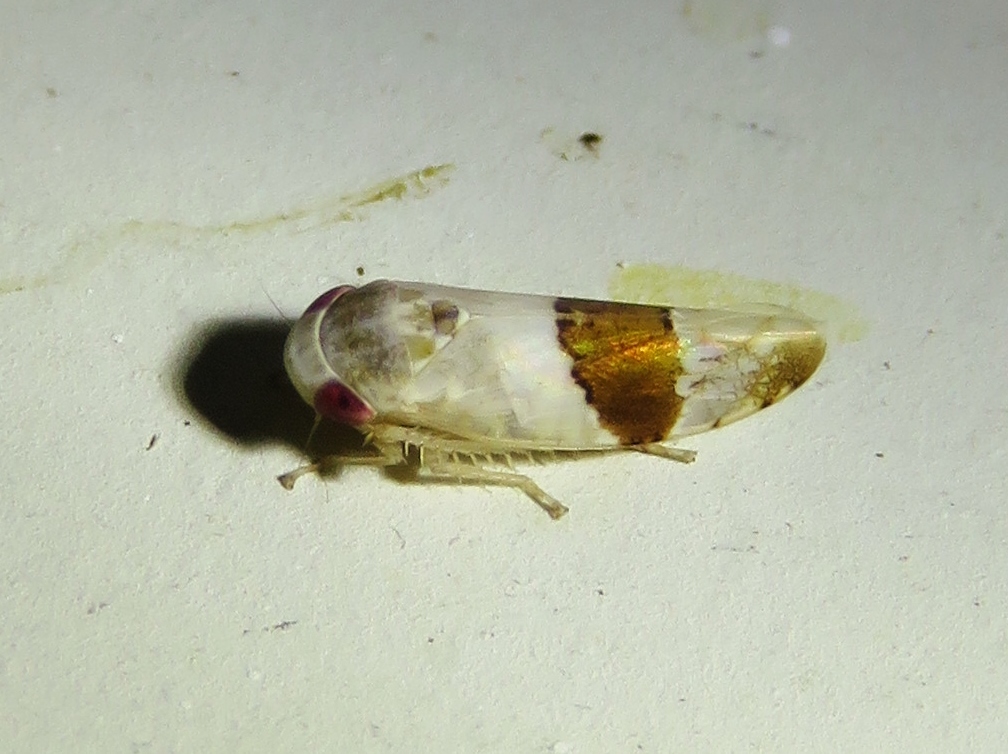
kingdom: Animalia
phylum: Arthropoda
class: Insecta
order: Hemiptera
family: Cicadellidae
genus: Norvellina
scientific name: Norvellina seminuda
